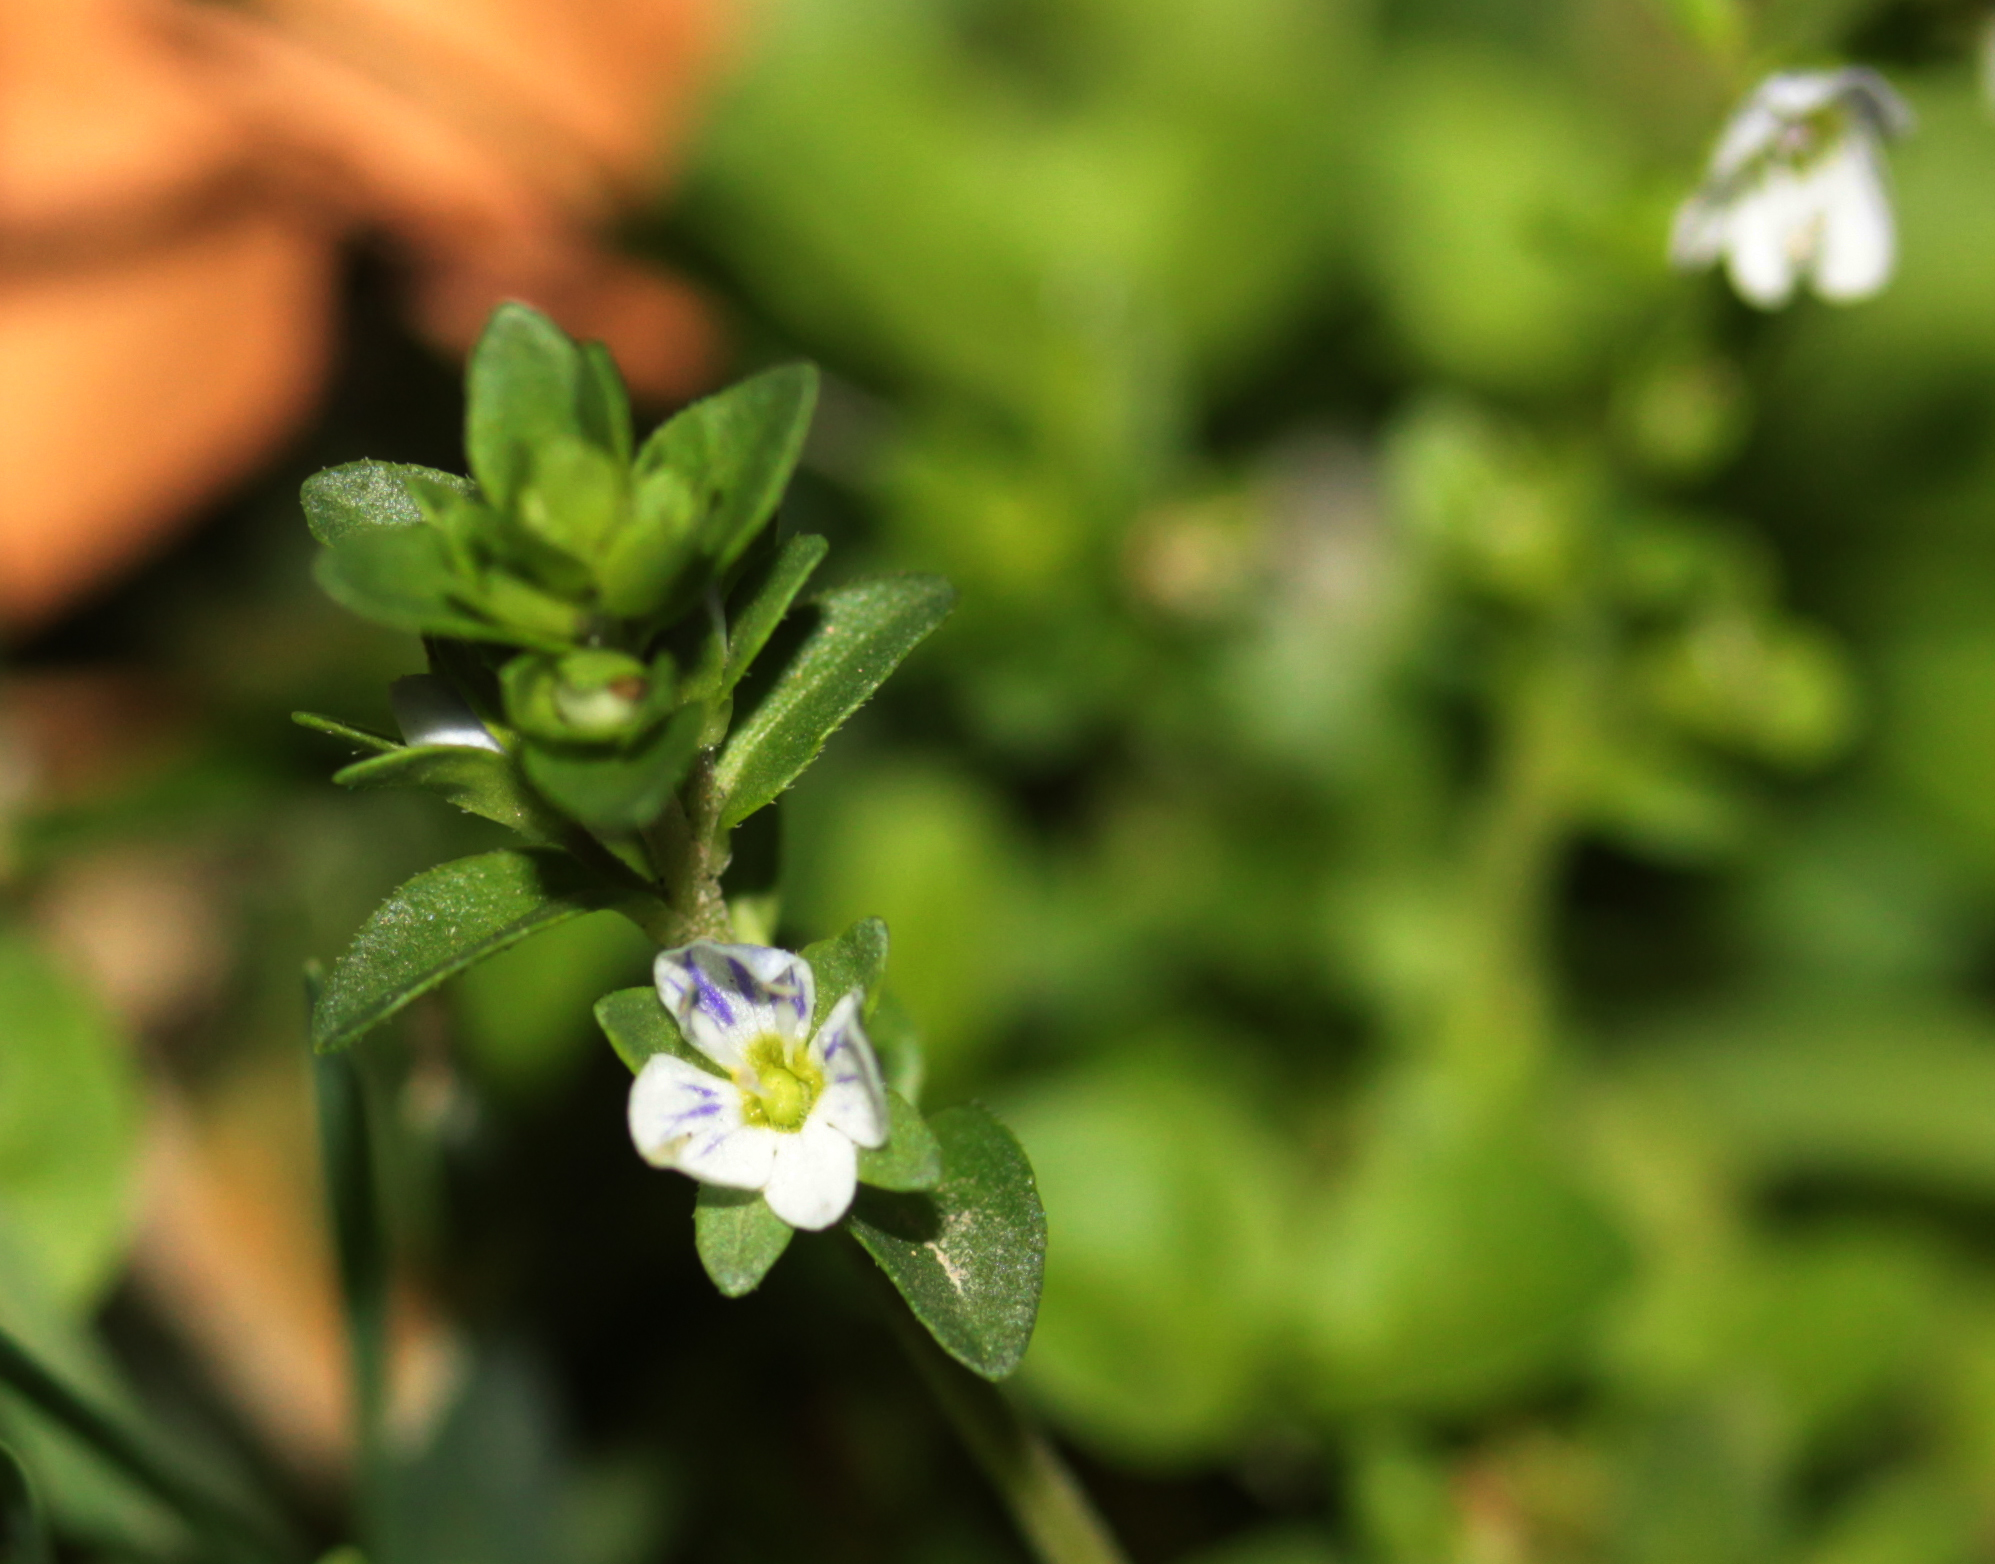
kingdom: Plantae
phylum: Tracheophyta
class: Magnoliopsida
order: Lamiales
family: Plantaginaceae
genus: Veronica
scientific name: Veronica serpyllifolia
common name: Thyme-leaved speedwell
